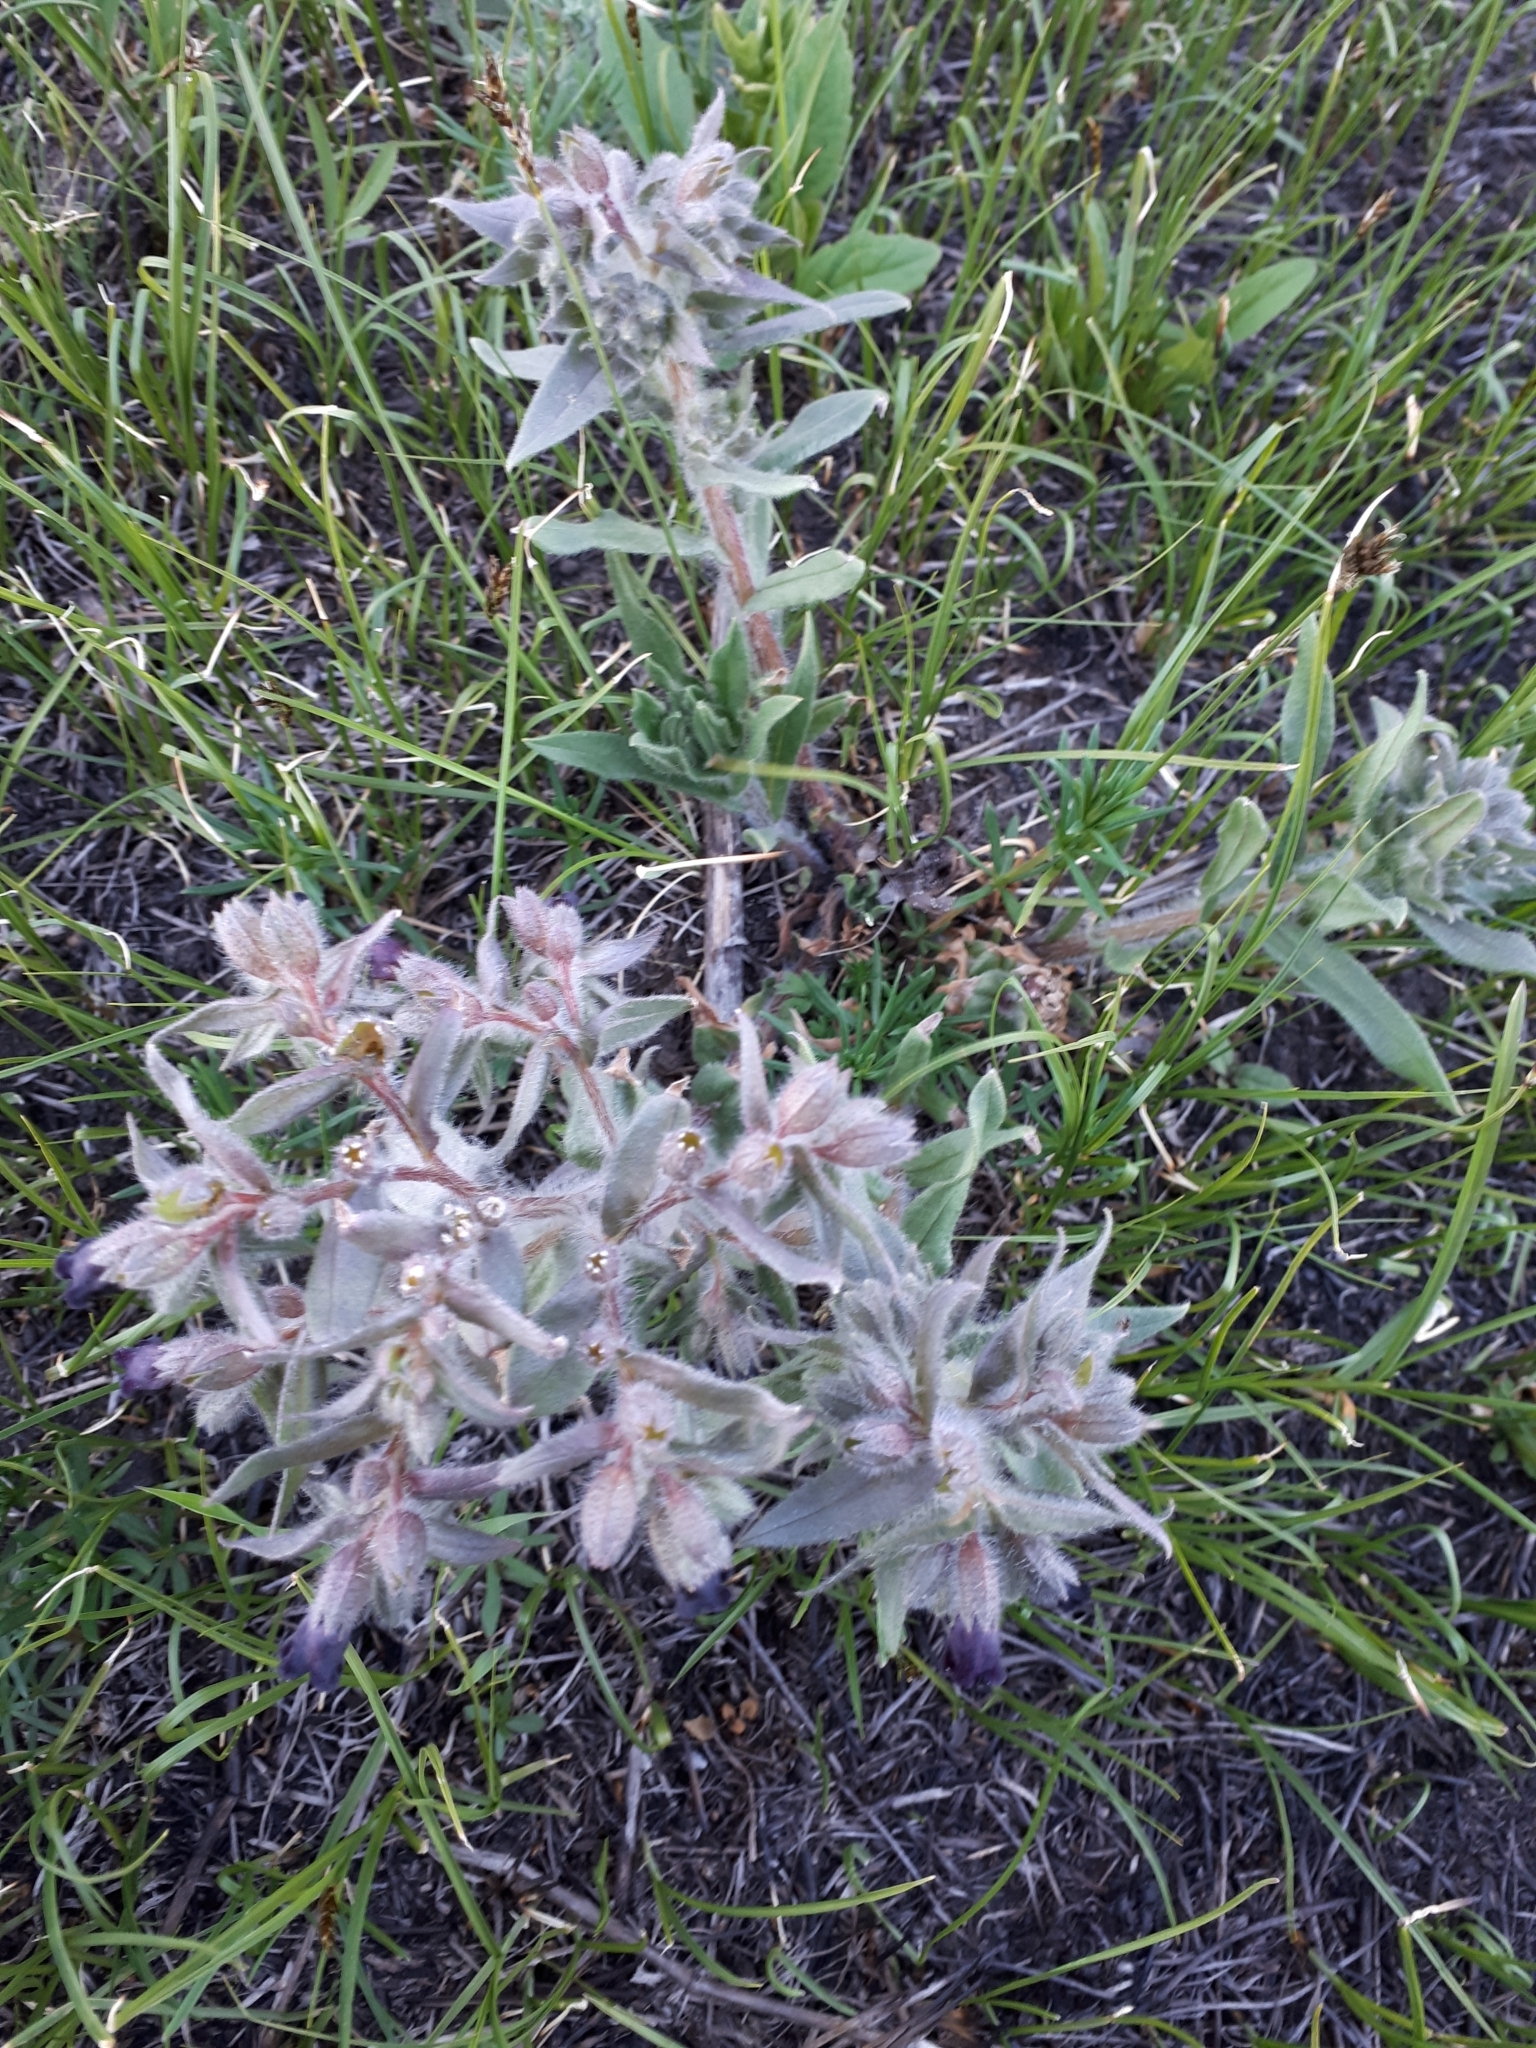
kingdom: Plantae
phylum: Tracheophyta
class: Magnoliopsida
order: Boraginales
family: Boraginaceae
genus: Nonea
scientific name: Nonea pulla
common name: Brown nonea
